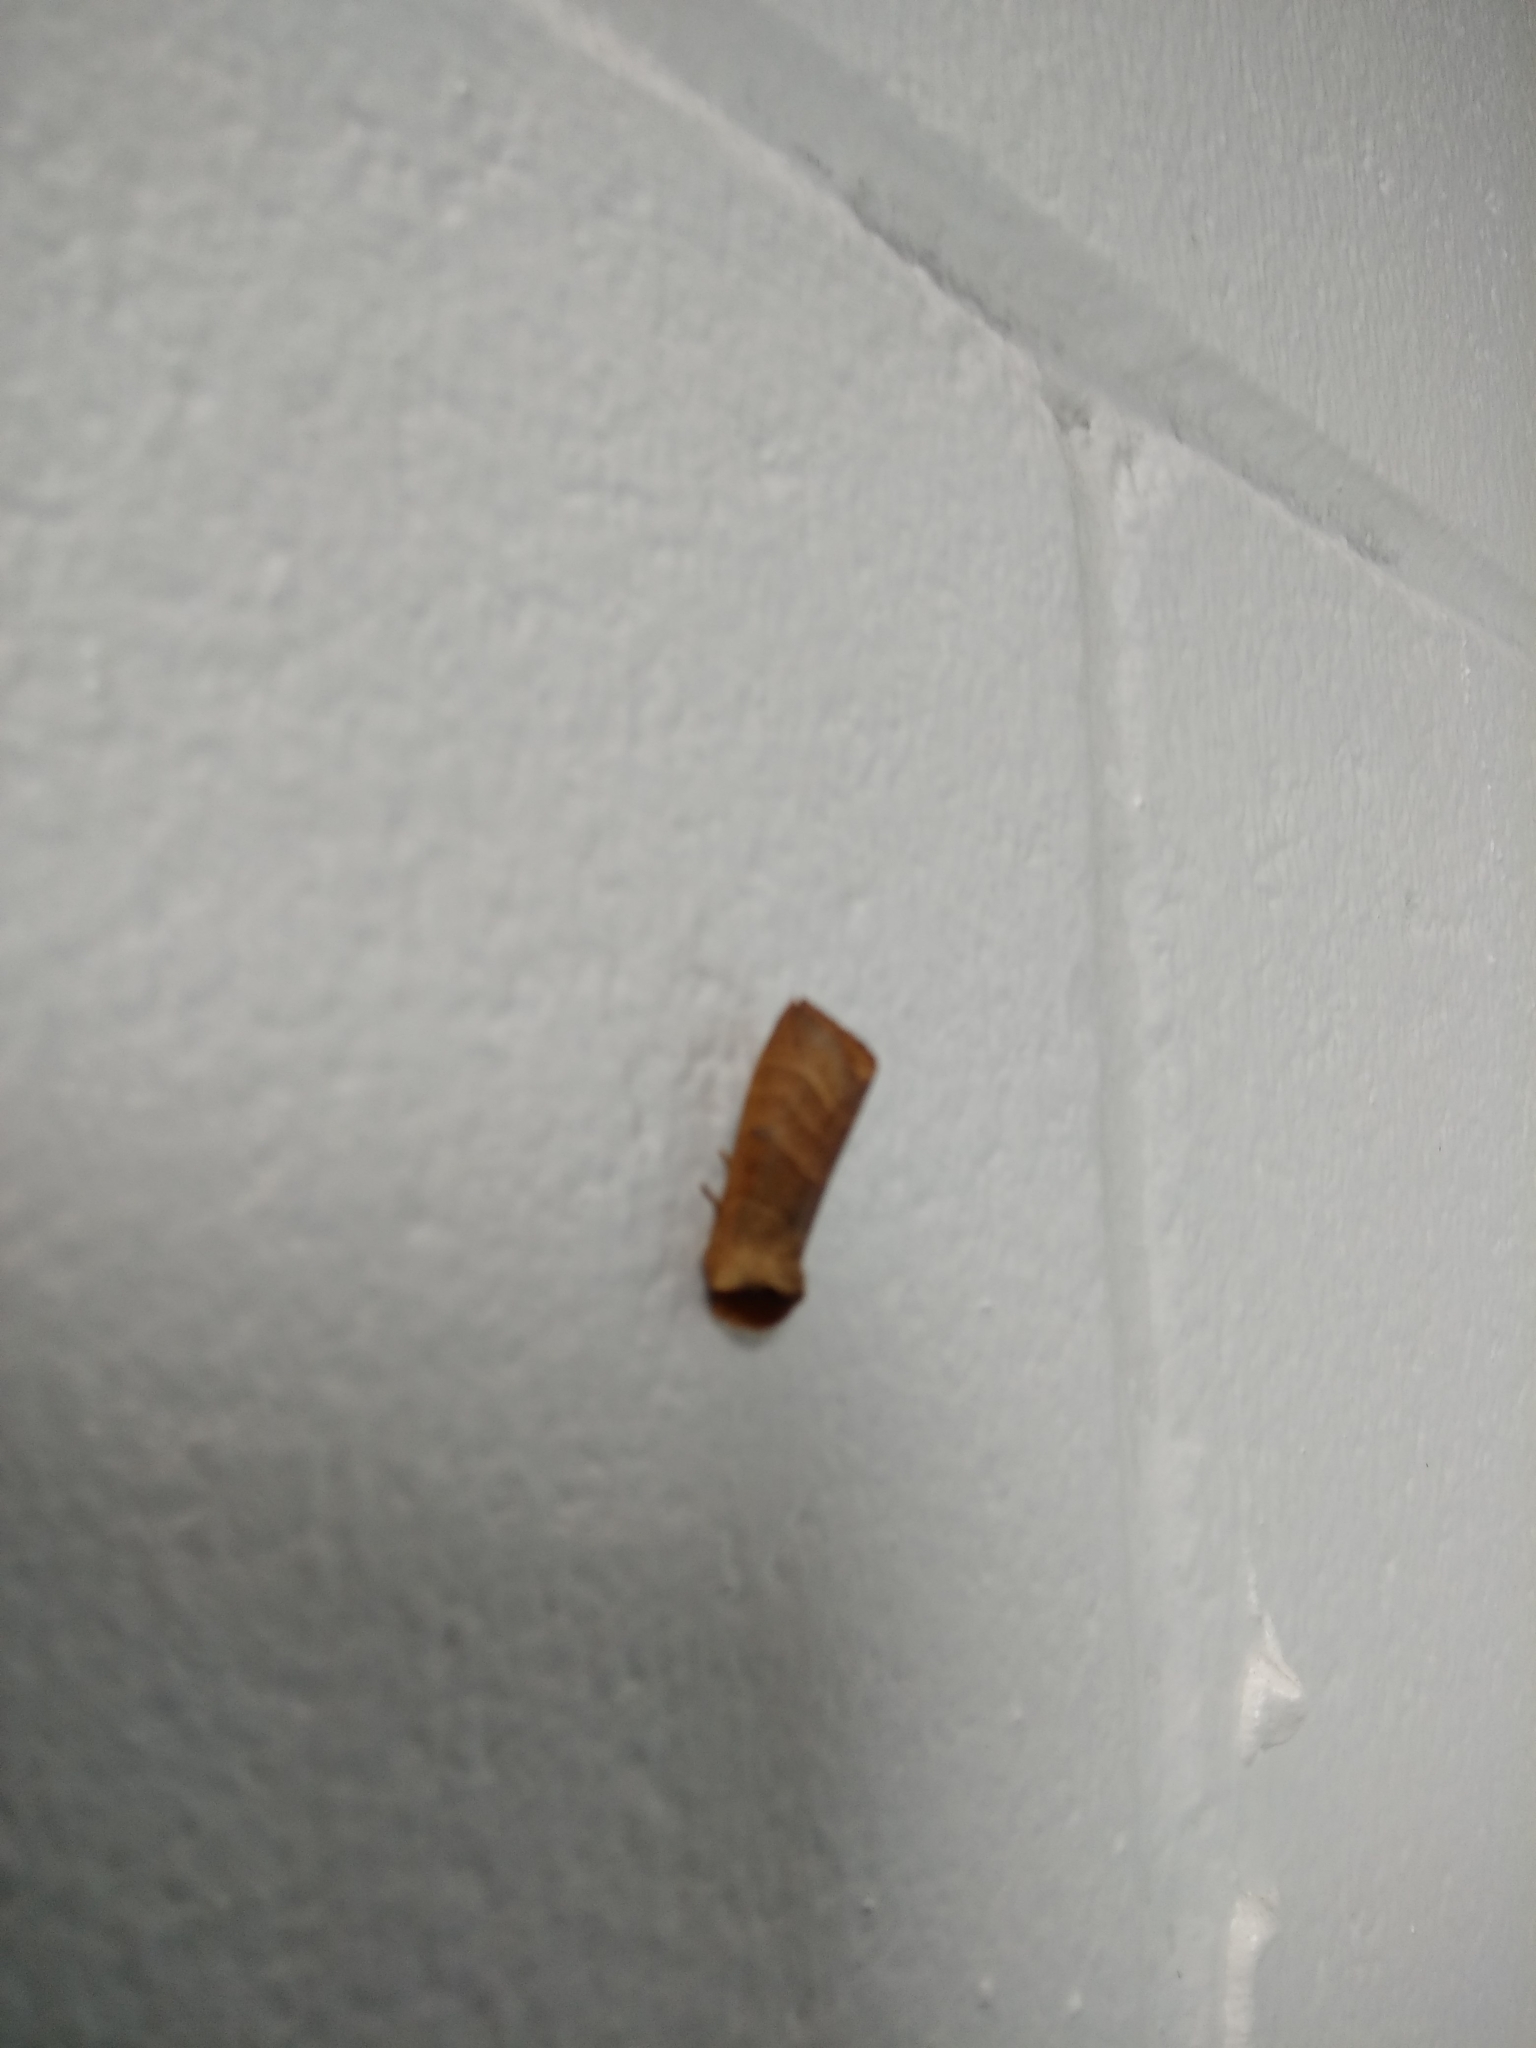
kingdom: Animalia
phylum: Arthropoda
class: Insecta
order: Lepidoptera
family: Notodontidae
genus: Datana
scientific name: Datana integerrima
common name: Walnut caterpillar
